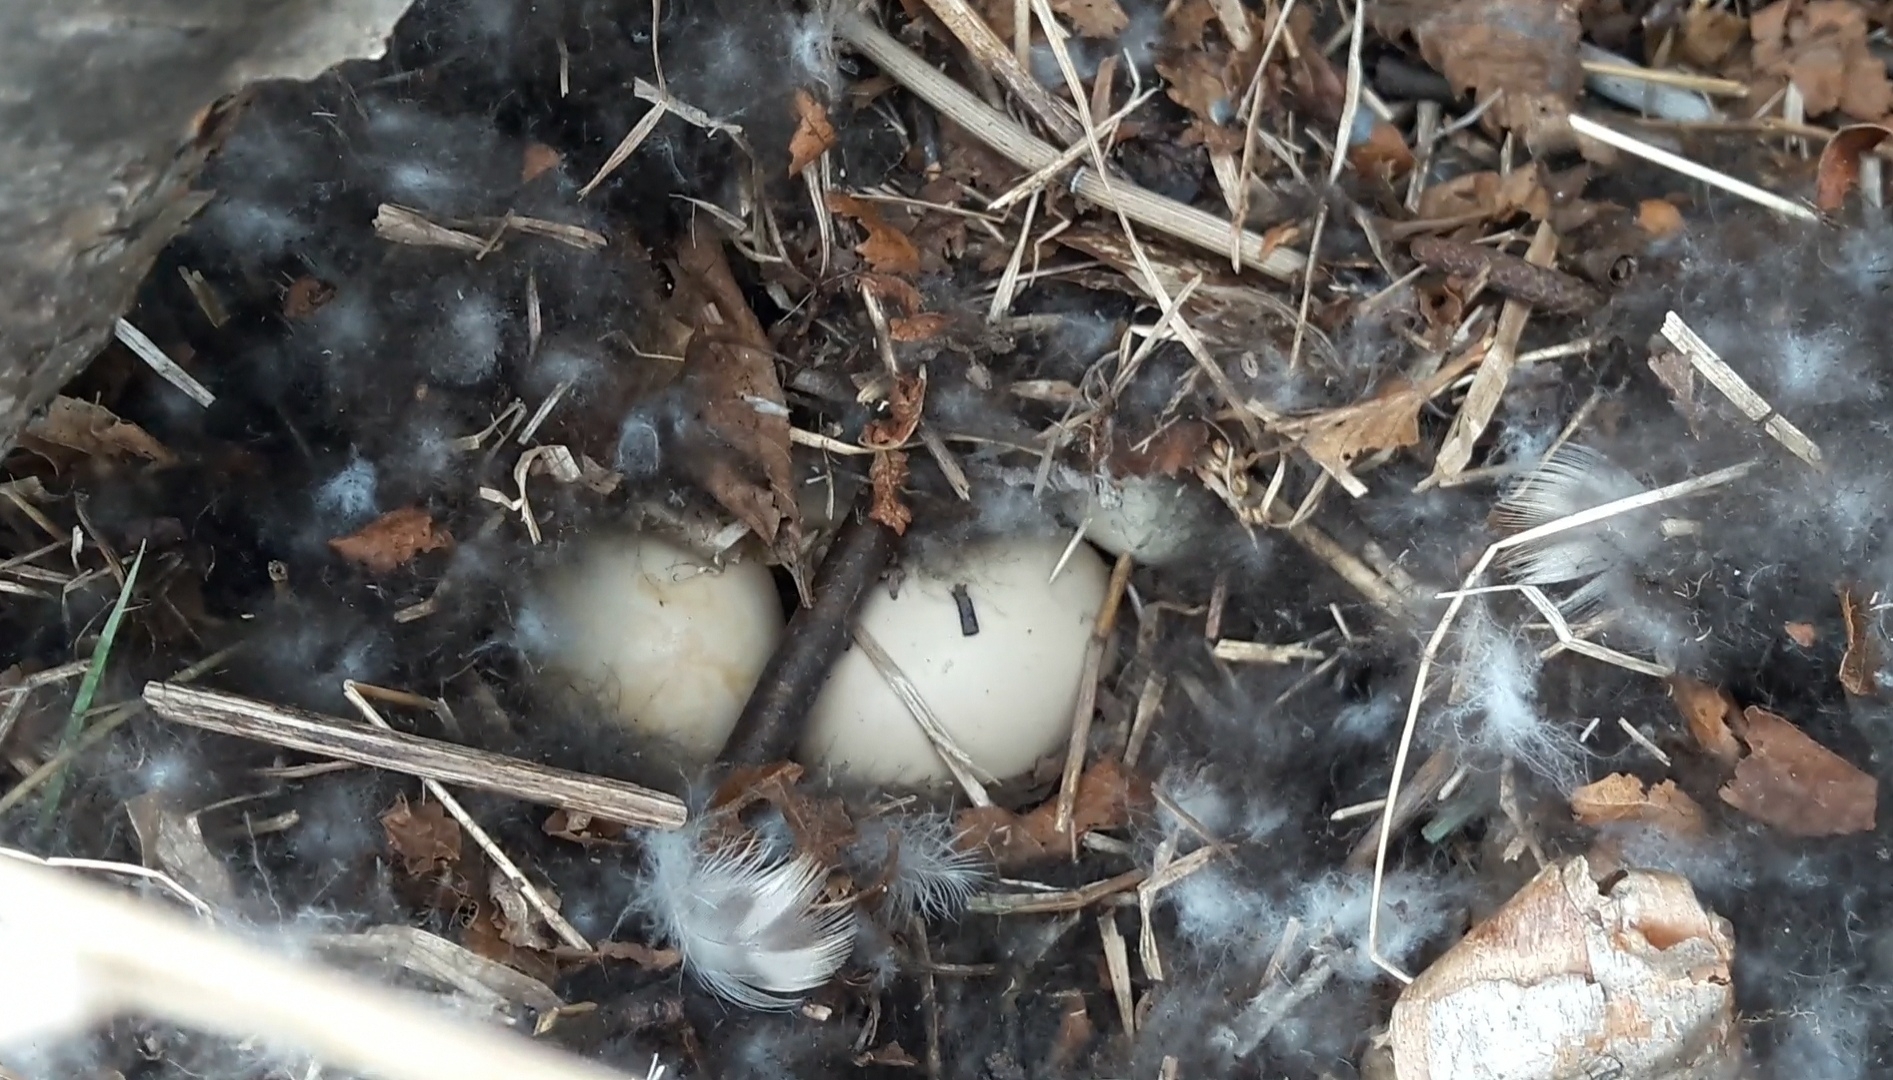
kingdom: Animalia
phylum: Chordata
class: Aves
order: Anseriformes
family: Anatidae
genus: Anas
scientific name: Anas platyrhynchos
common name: Mallard
